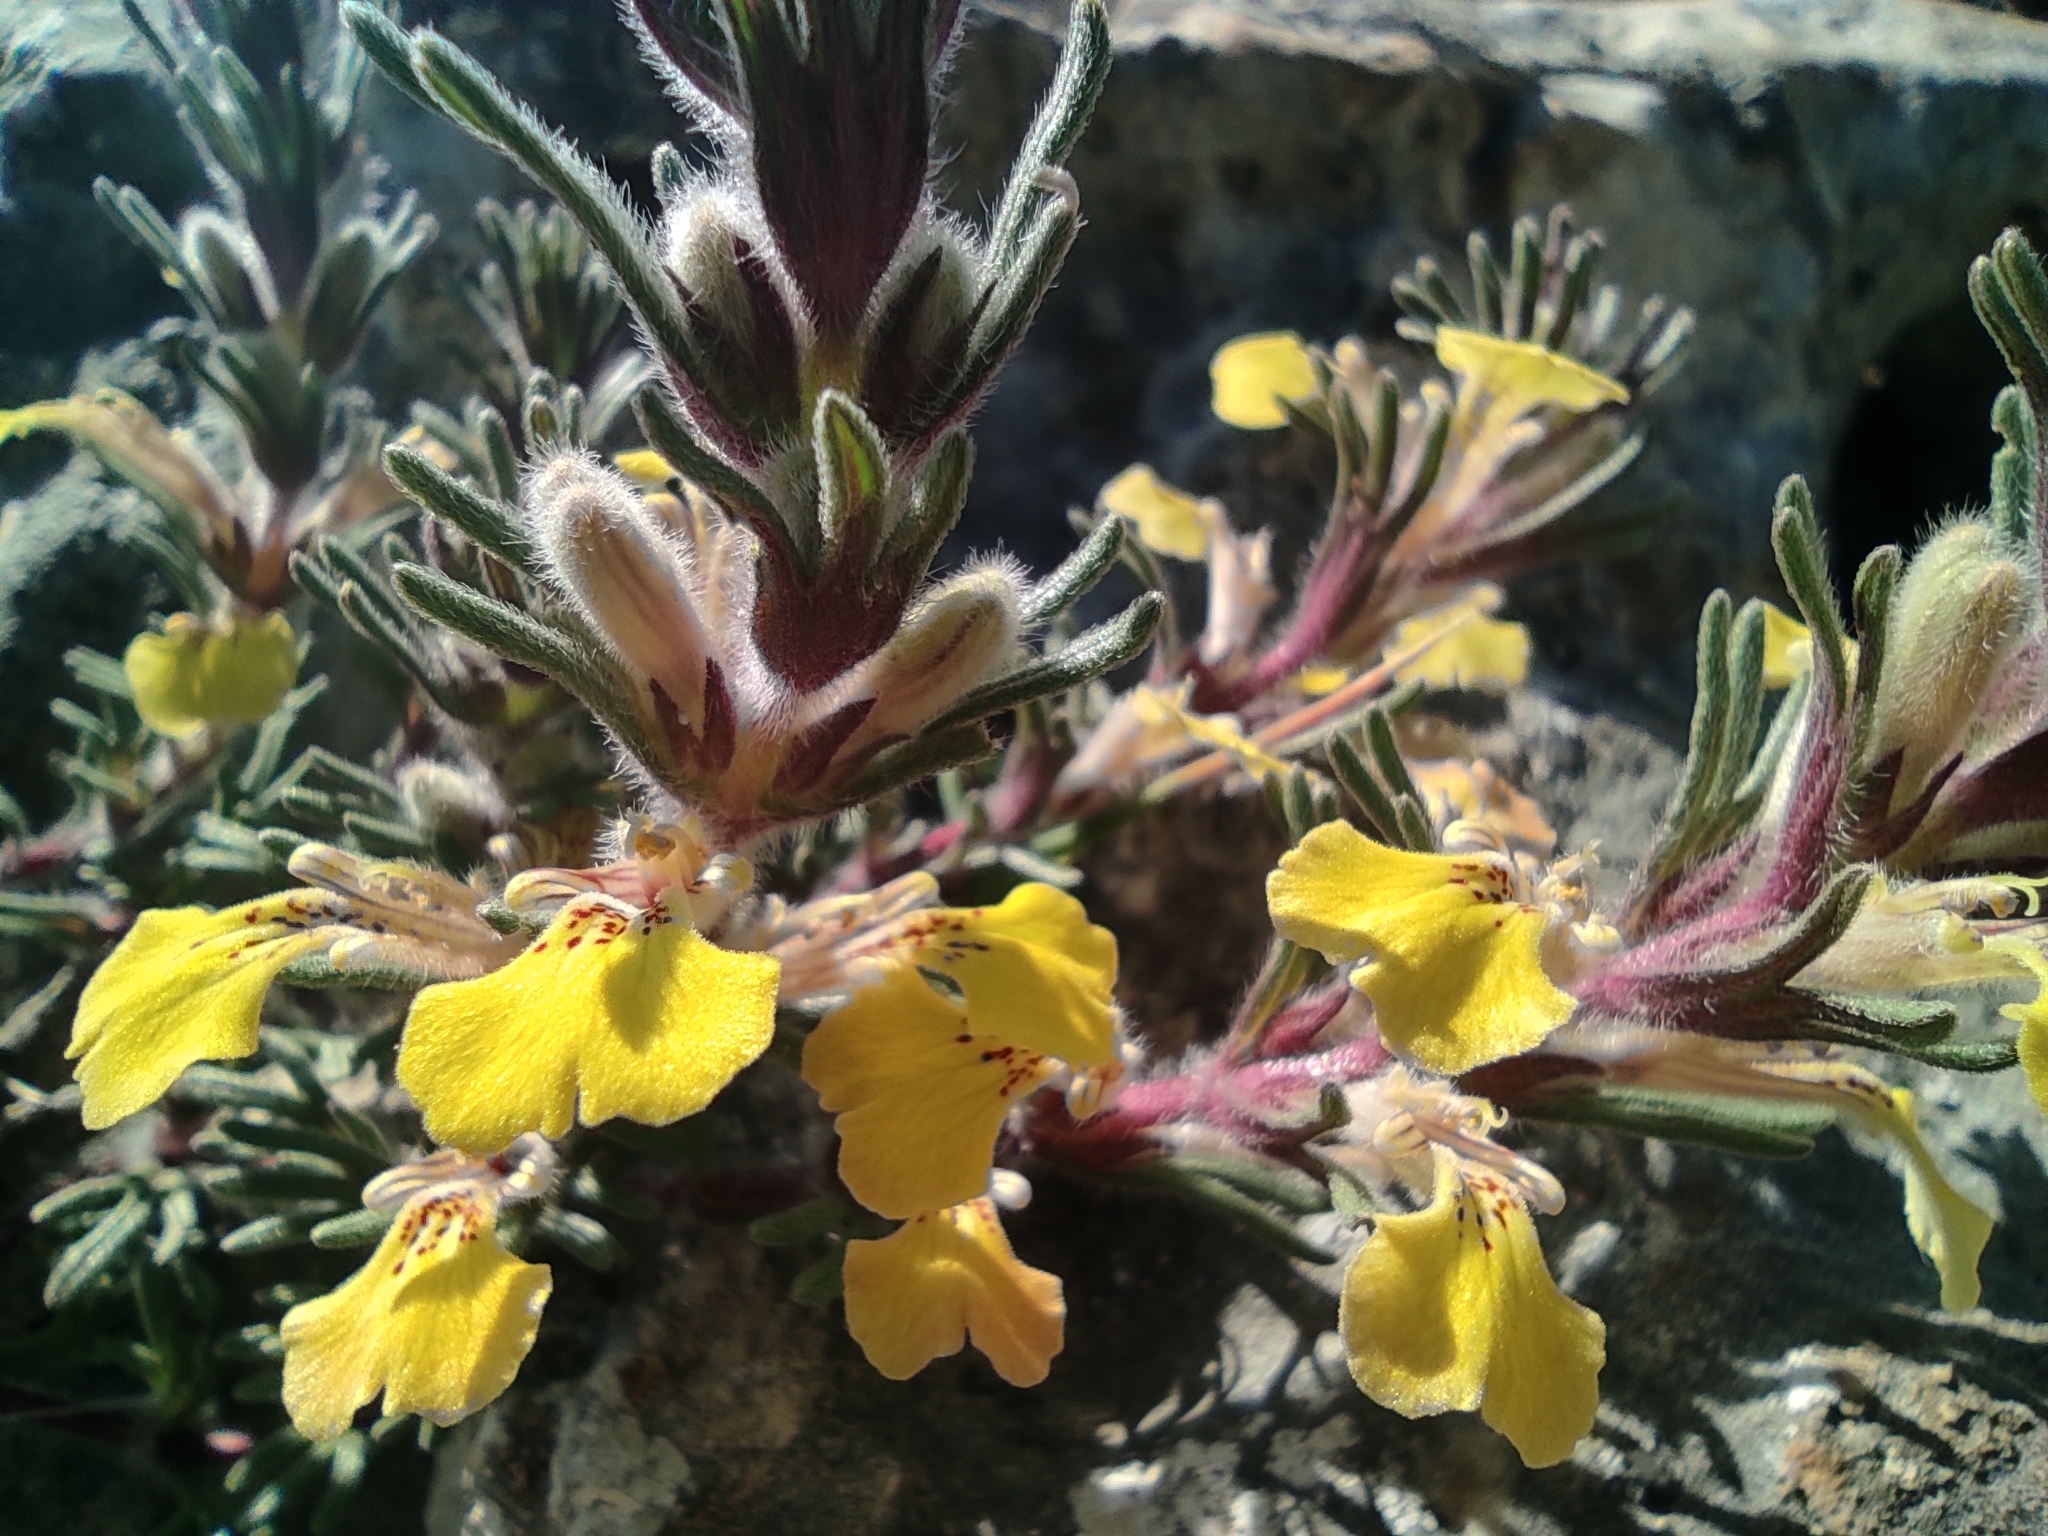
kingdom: Plantae
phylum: Tracheophyta
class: Magnoliopsida
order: Lamiales
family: Lamiaceae
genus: Ajuga
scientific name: Ajuga chamaepitys
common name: Ground-pine
